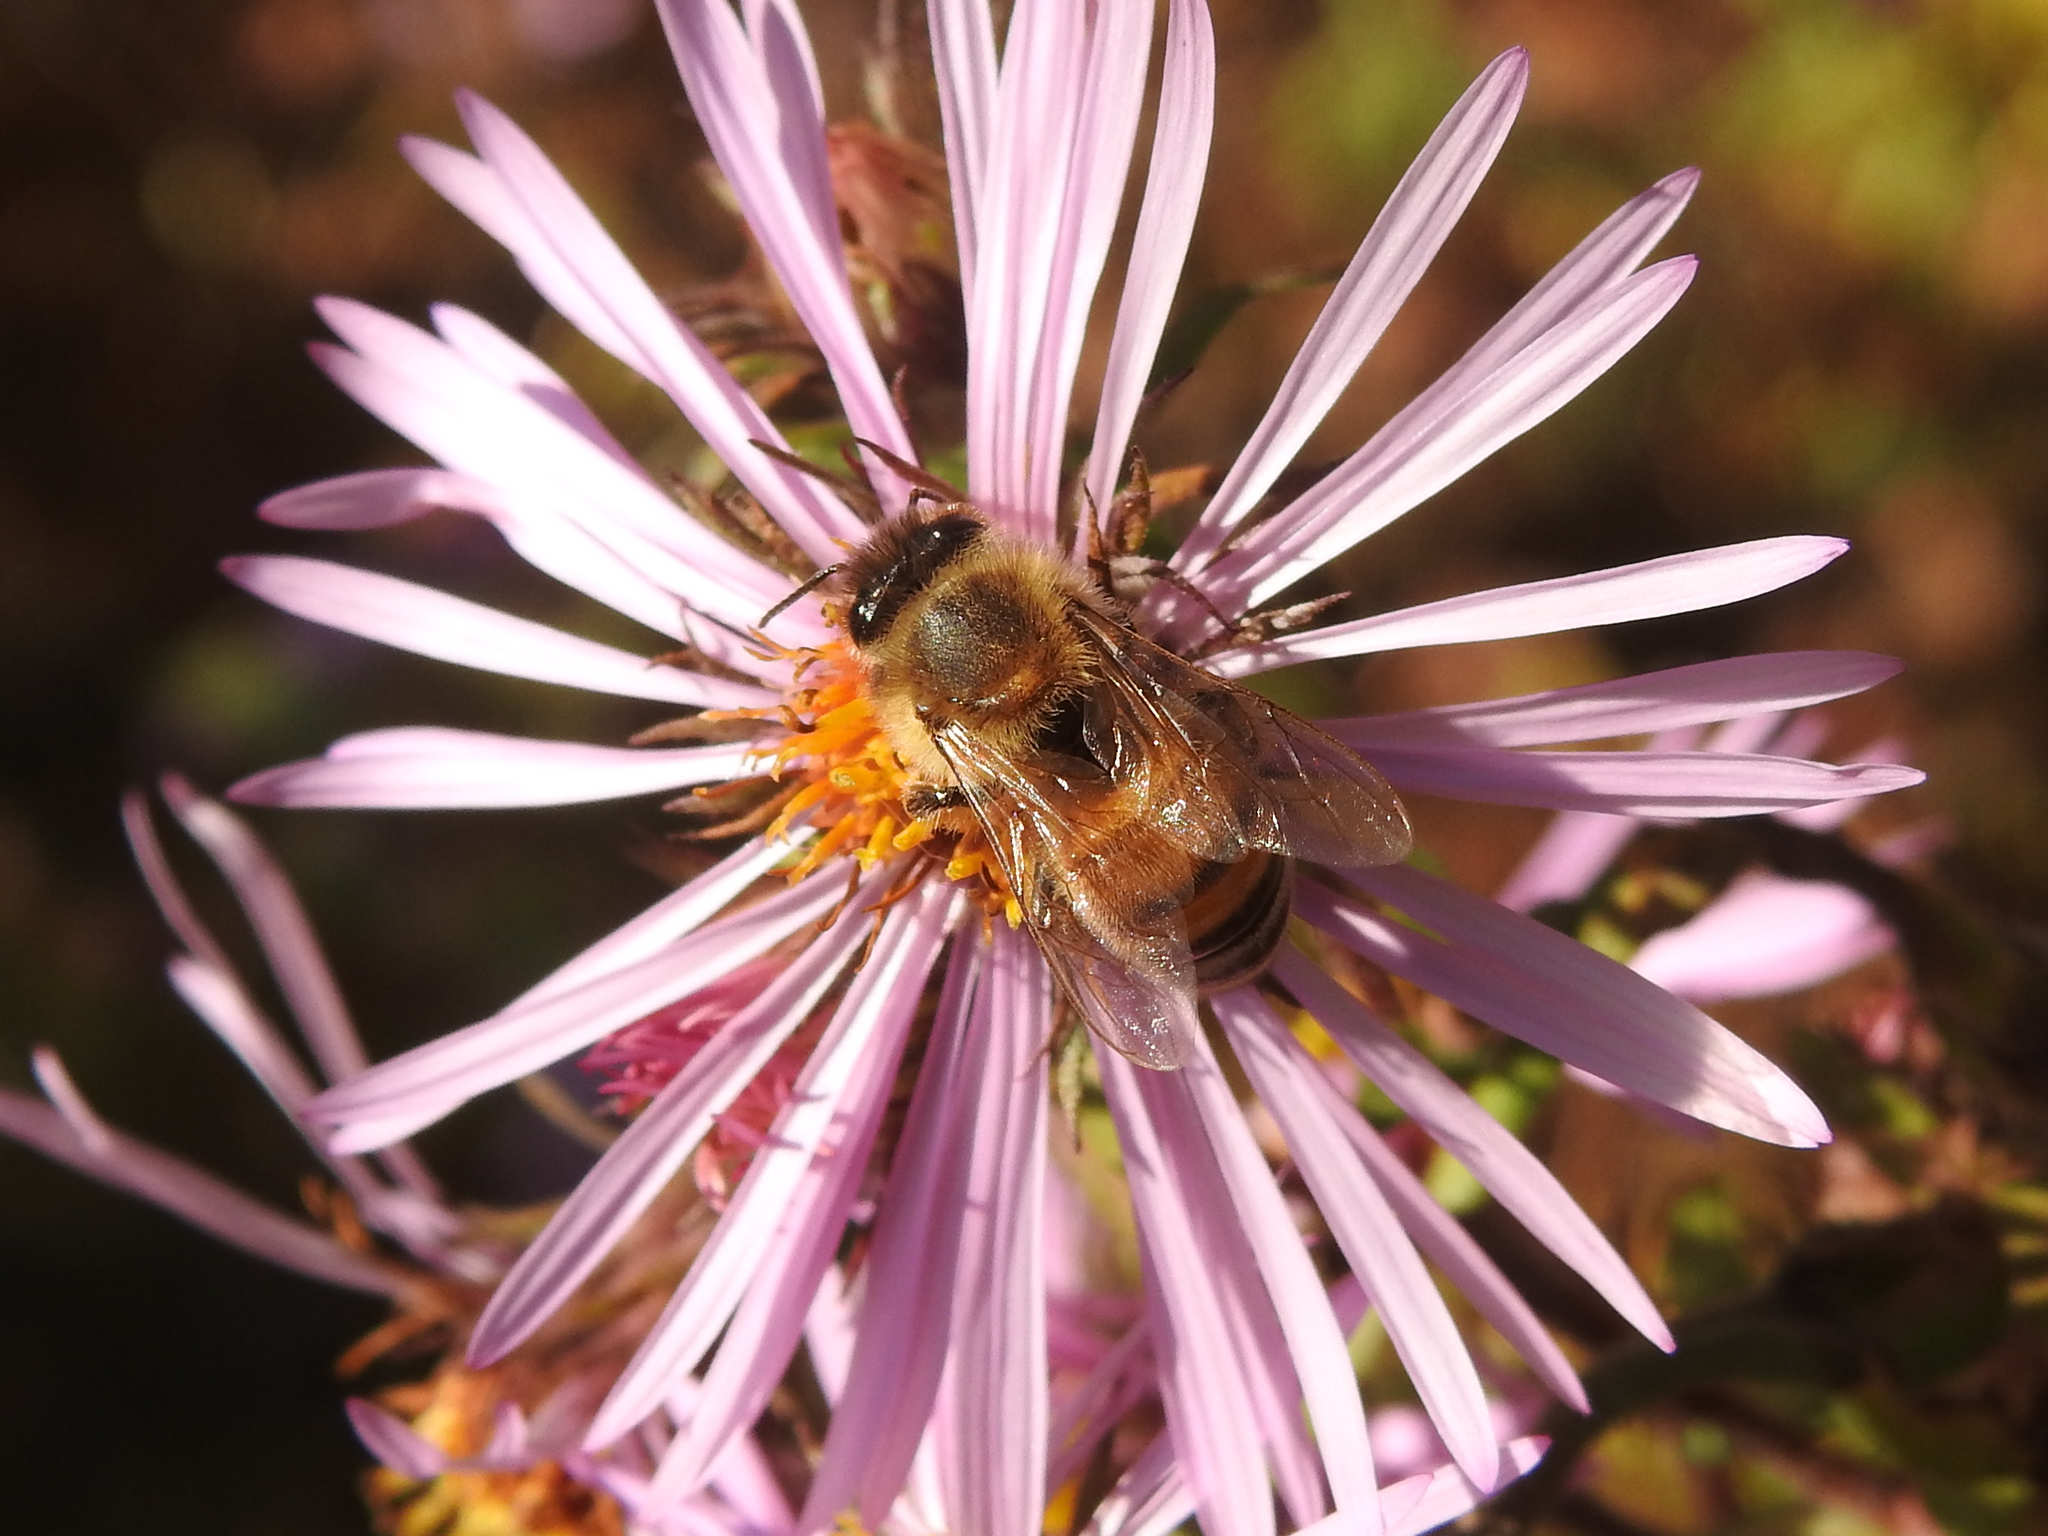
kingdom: Animalia
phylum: Arthropoda
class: Insecta
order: Hymenoptera
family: Apidae
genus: Apis
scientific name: Apis mellifera
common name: Honey bee
